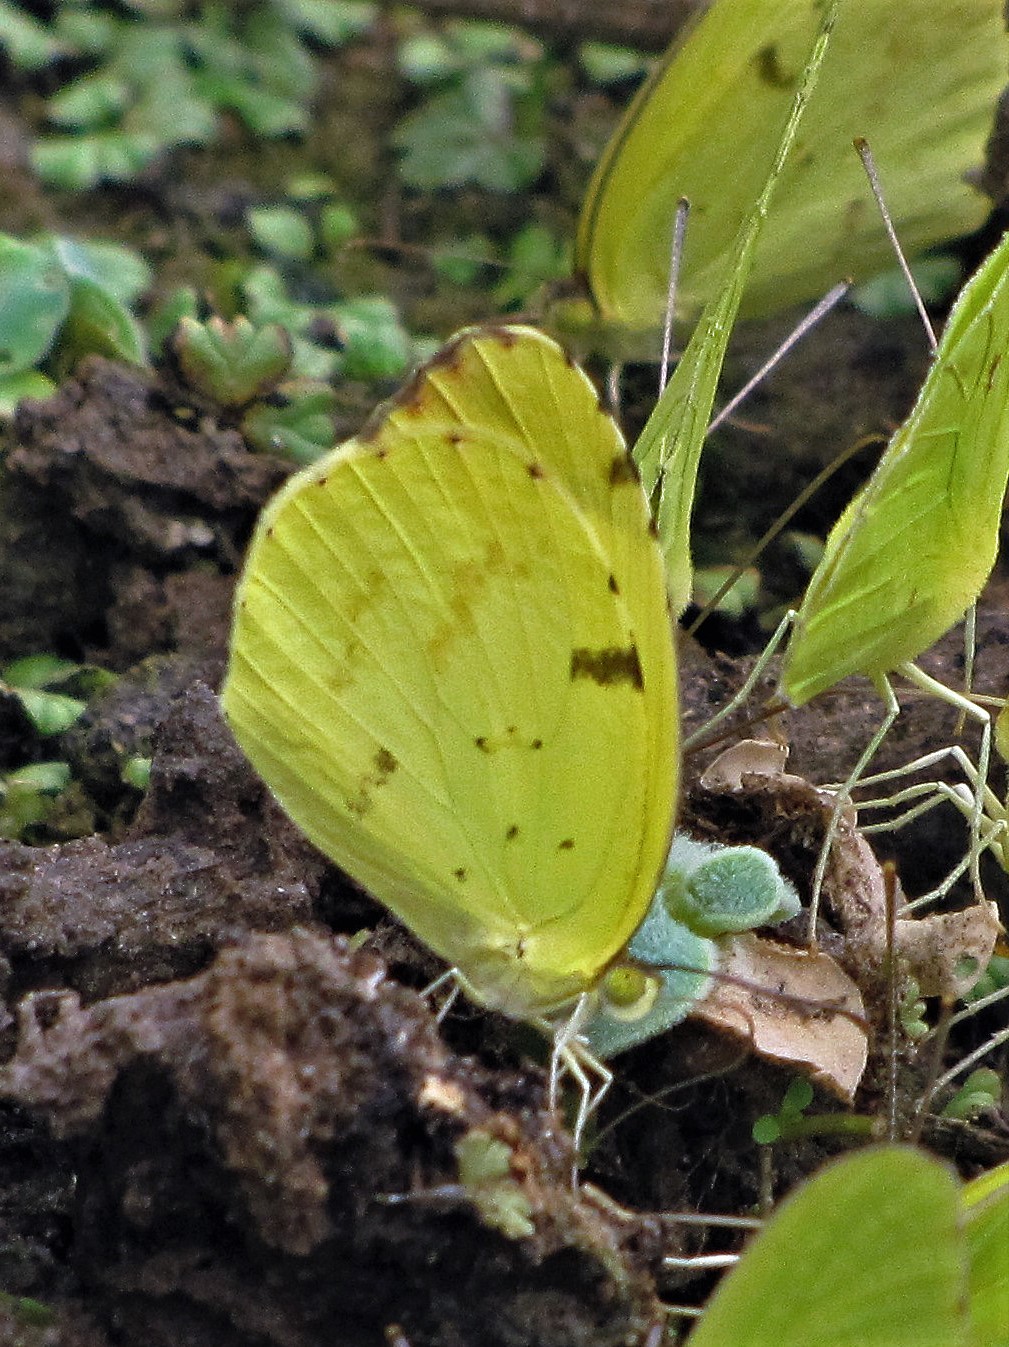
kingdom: Animalia
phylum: Arthropoda
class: Insecta
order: Lepidoptera
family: Pieridae
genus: Teriocolias
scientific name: Teriocolias
